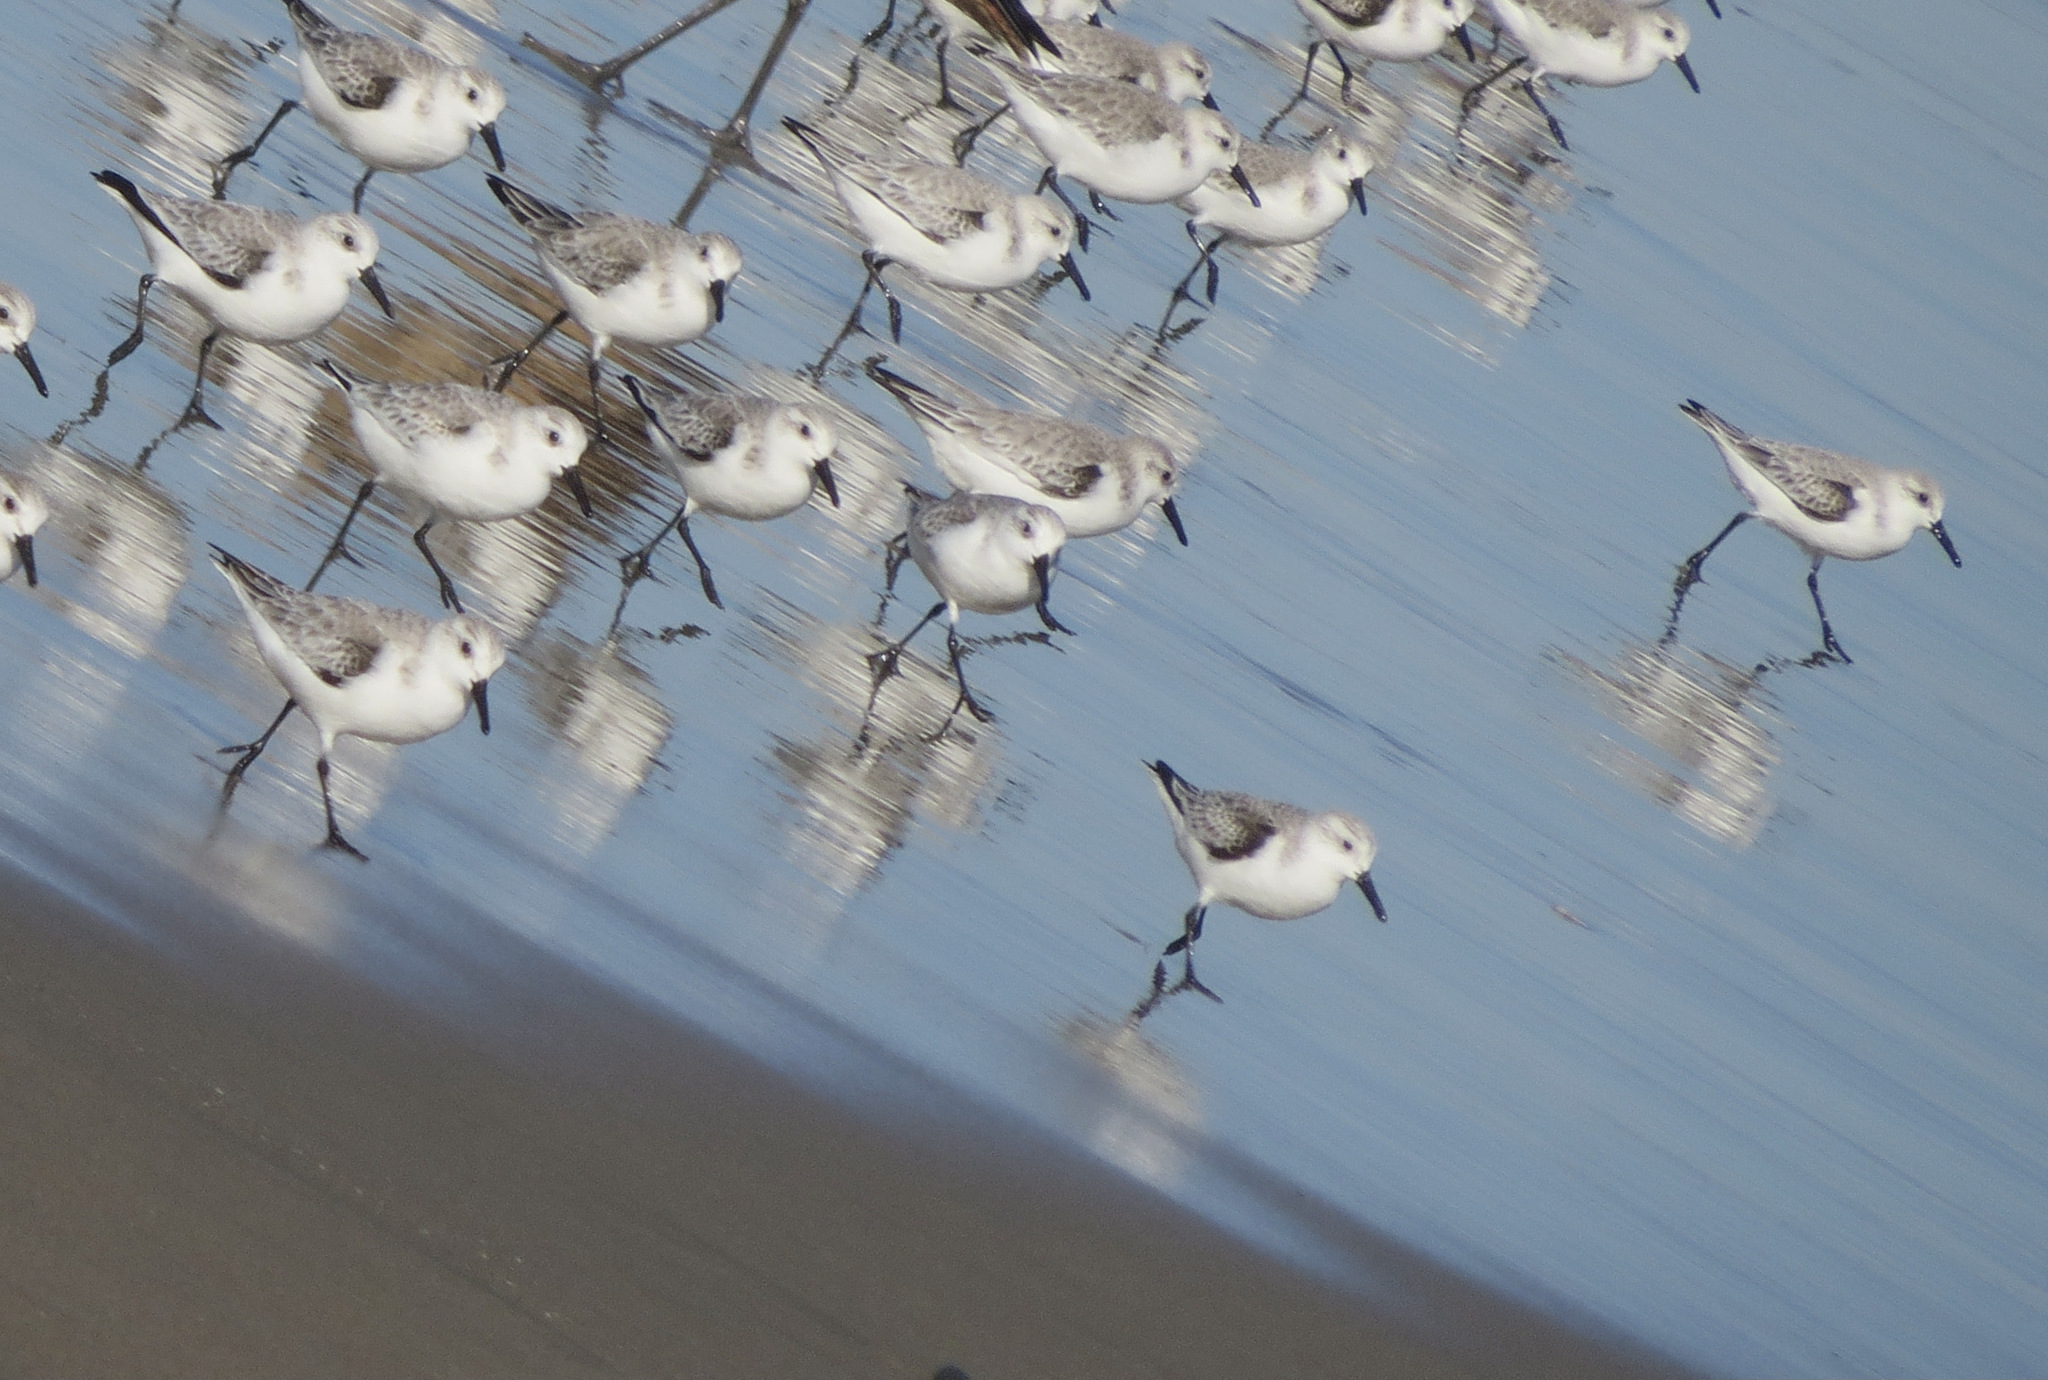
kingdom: Animalia
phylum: Chordata
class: Aves
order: Charadriiformes
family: Scolopacidae
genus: Calidris
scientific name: Calidris alba
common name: Sanderling
